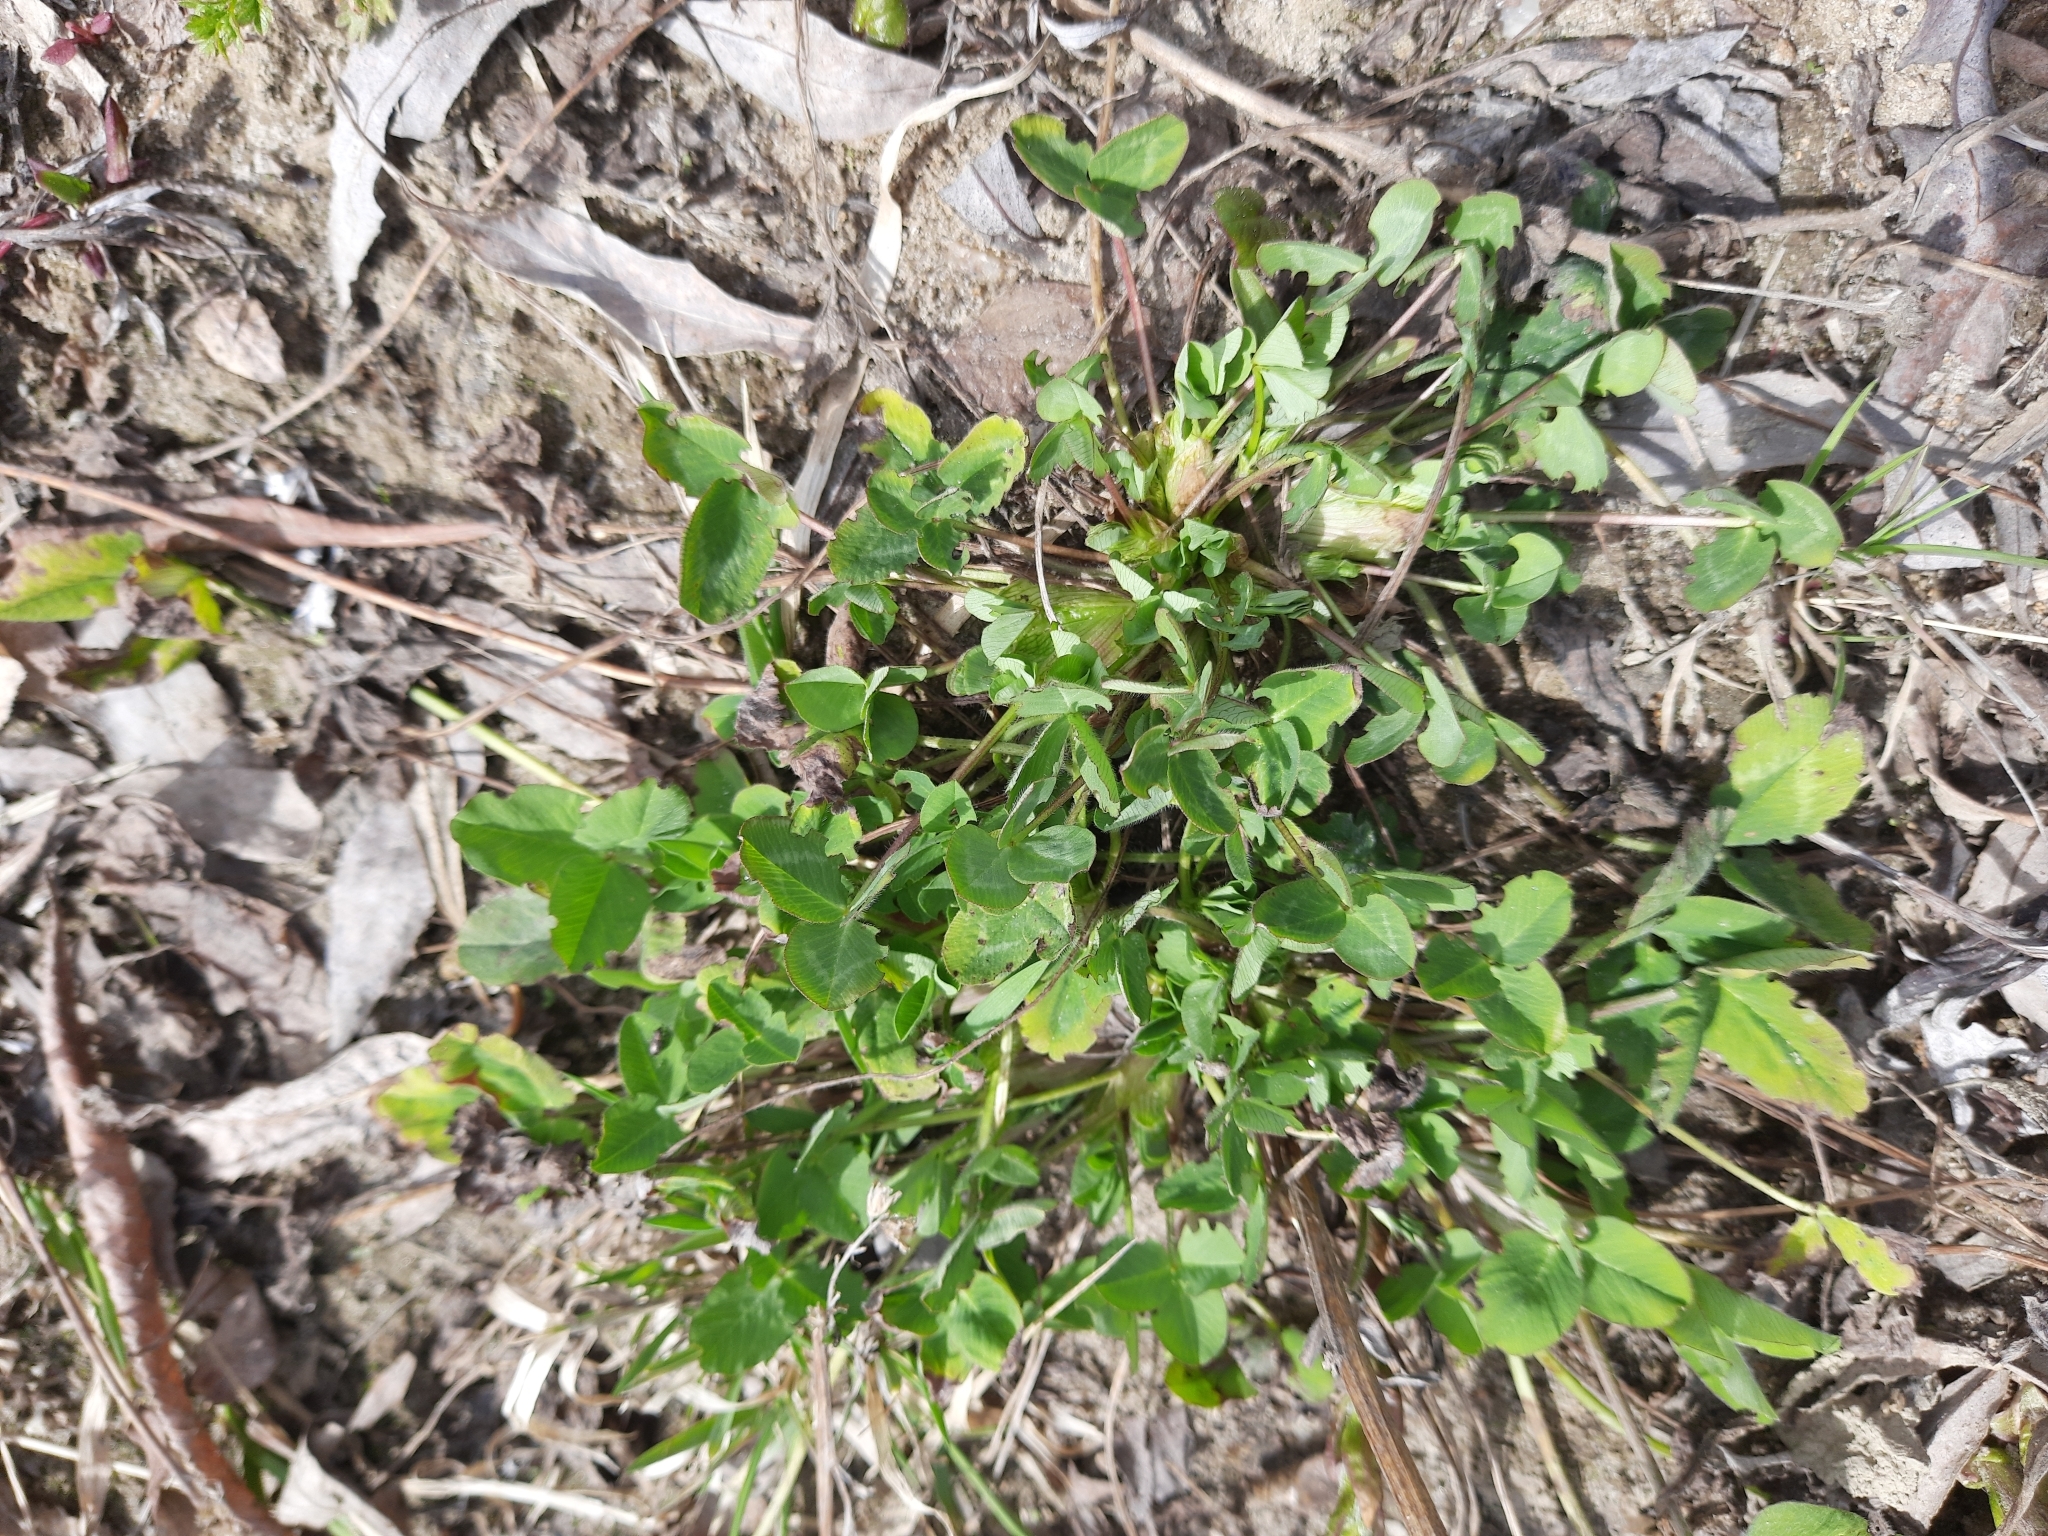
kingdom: Plantae
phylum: Tracheophyta
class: Magnoliopsida
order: Fabales
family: Fabaceae
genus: Trifolium
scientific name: Trifolium pratense
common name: Red clover
